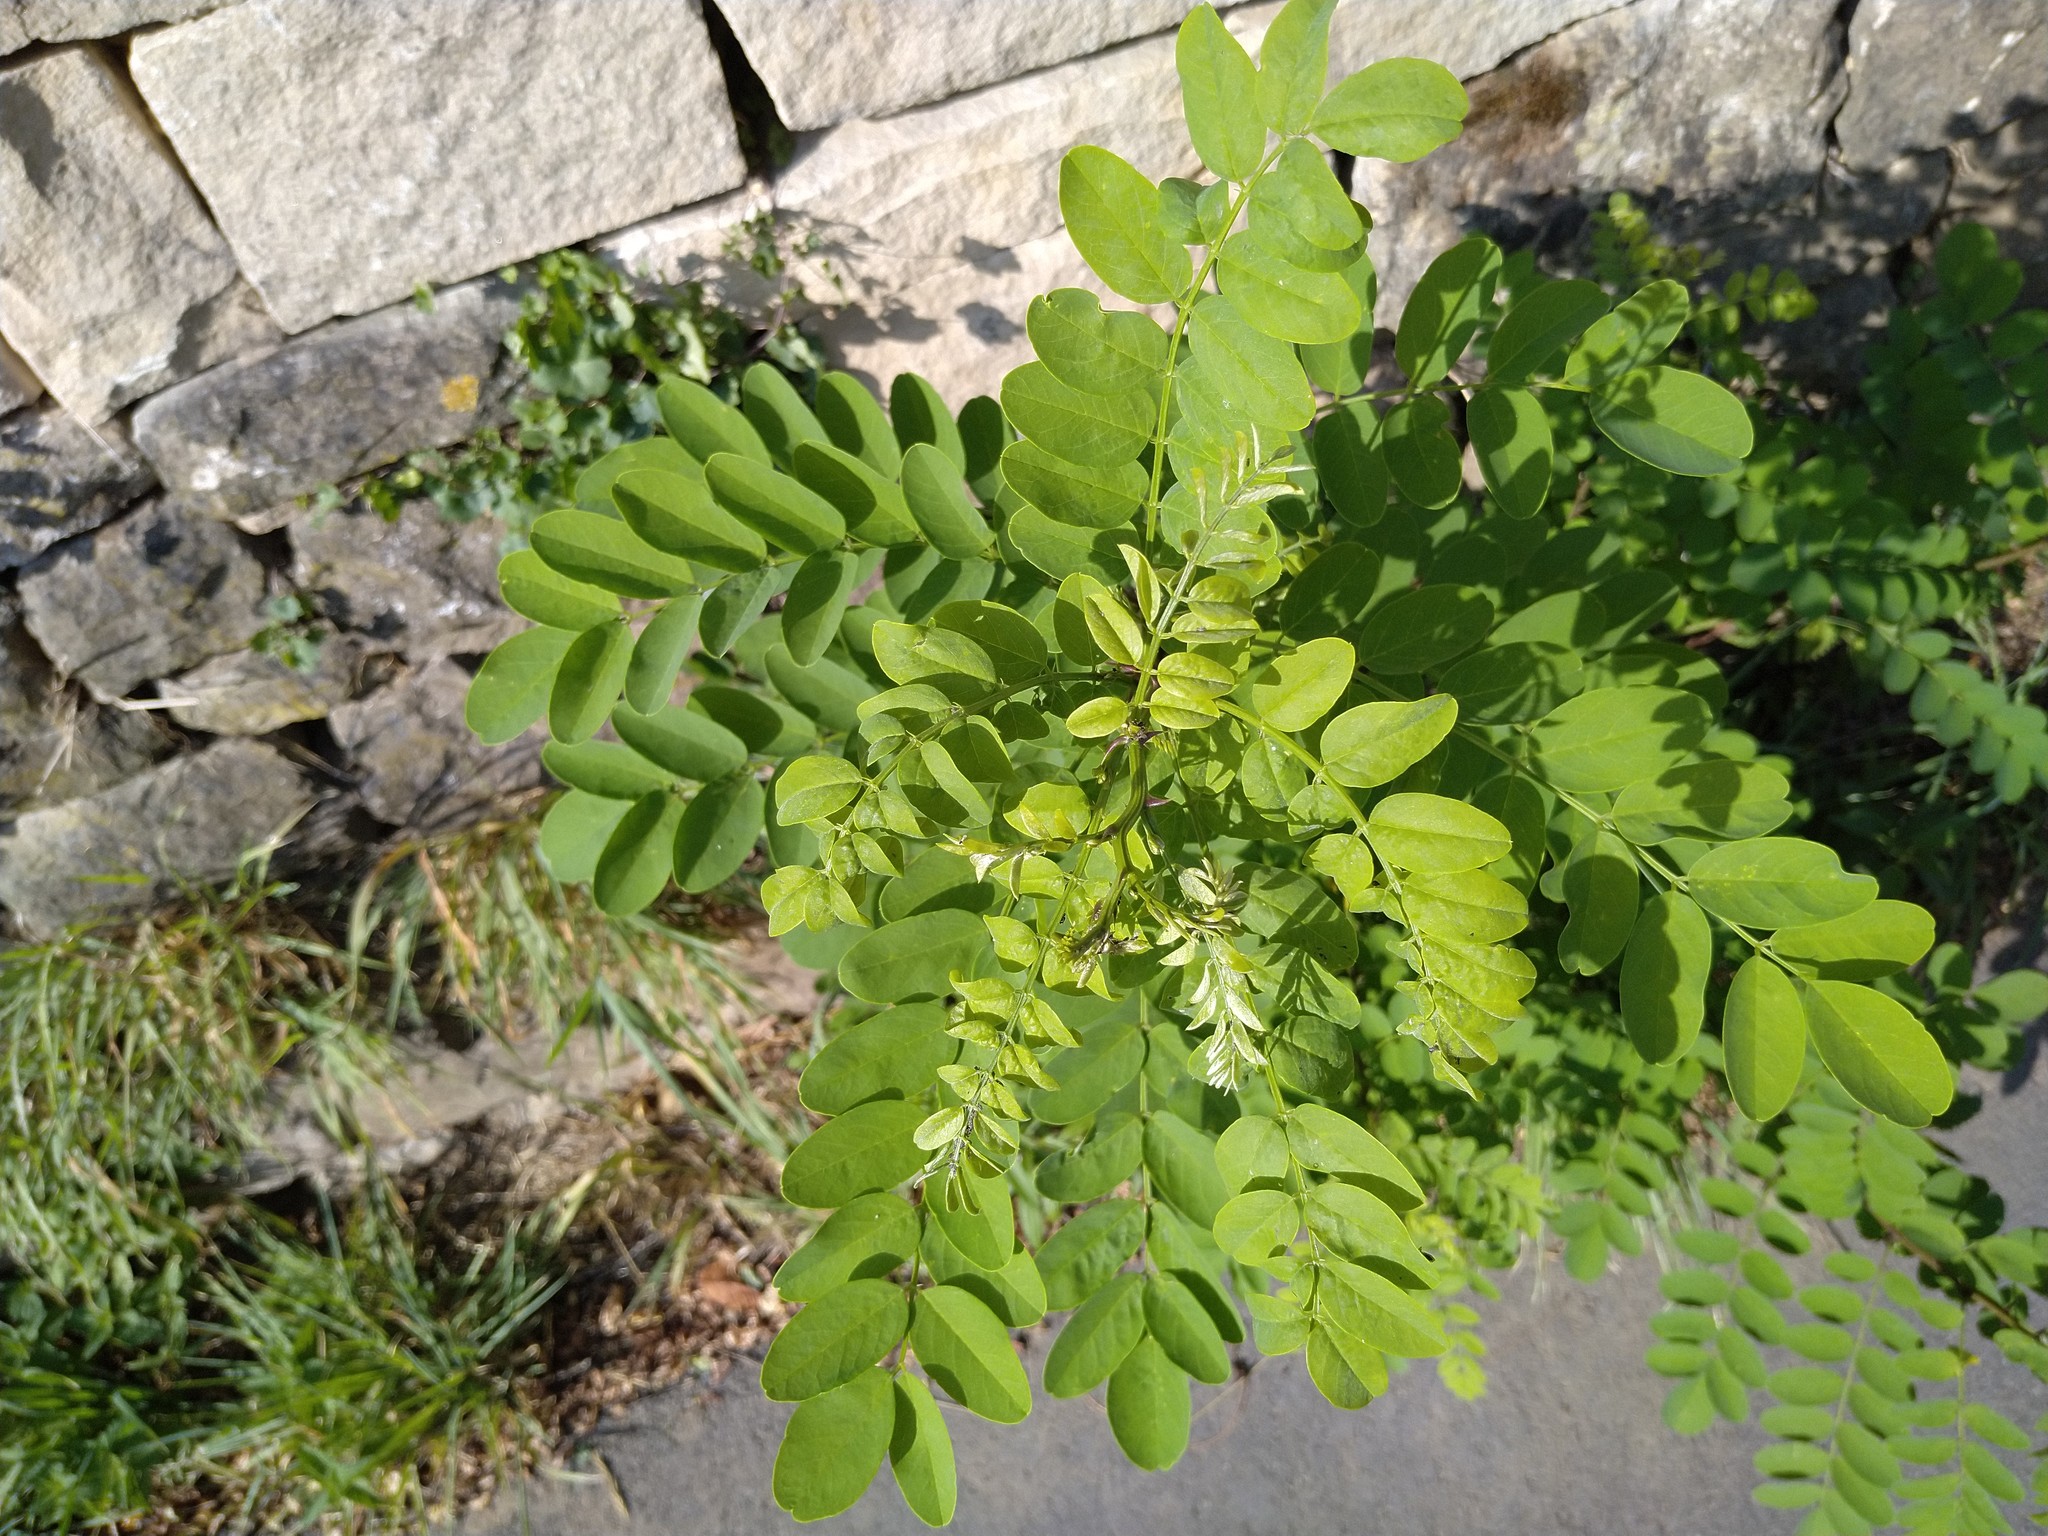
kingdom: Plantae
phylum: Tracheophyta
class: Magnoliopsida
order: Fabales
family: Fabaceae
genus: Robinia
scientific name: Robinia pseudoacacia
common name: Black locust
